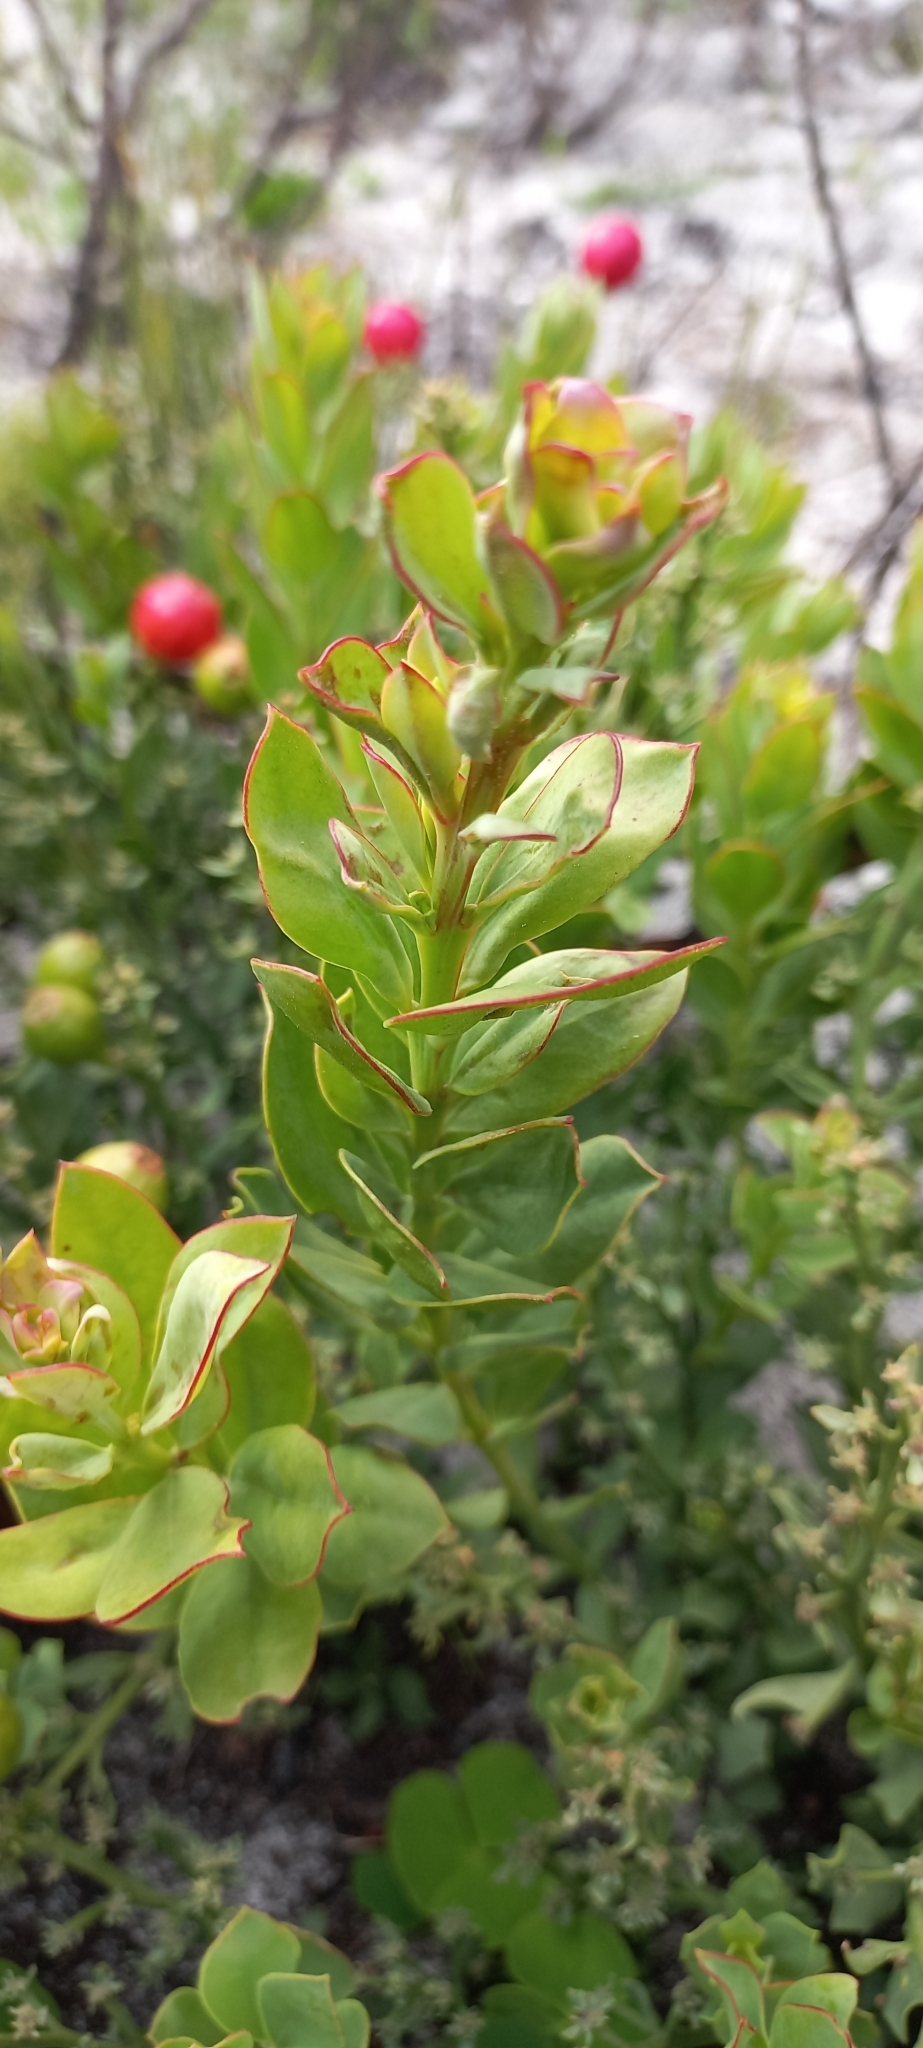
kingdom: Plantae
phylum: Tracheophyta
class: Magnoliopsida
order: Santalales
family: Santalaceae
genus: Osyris
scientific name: Osyris speciosa
